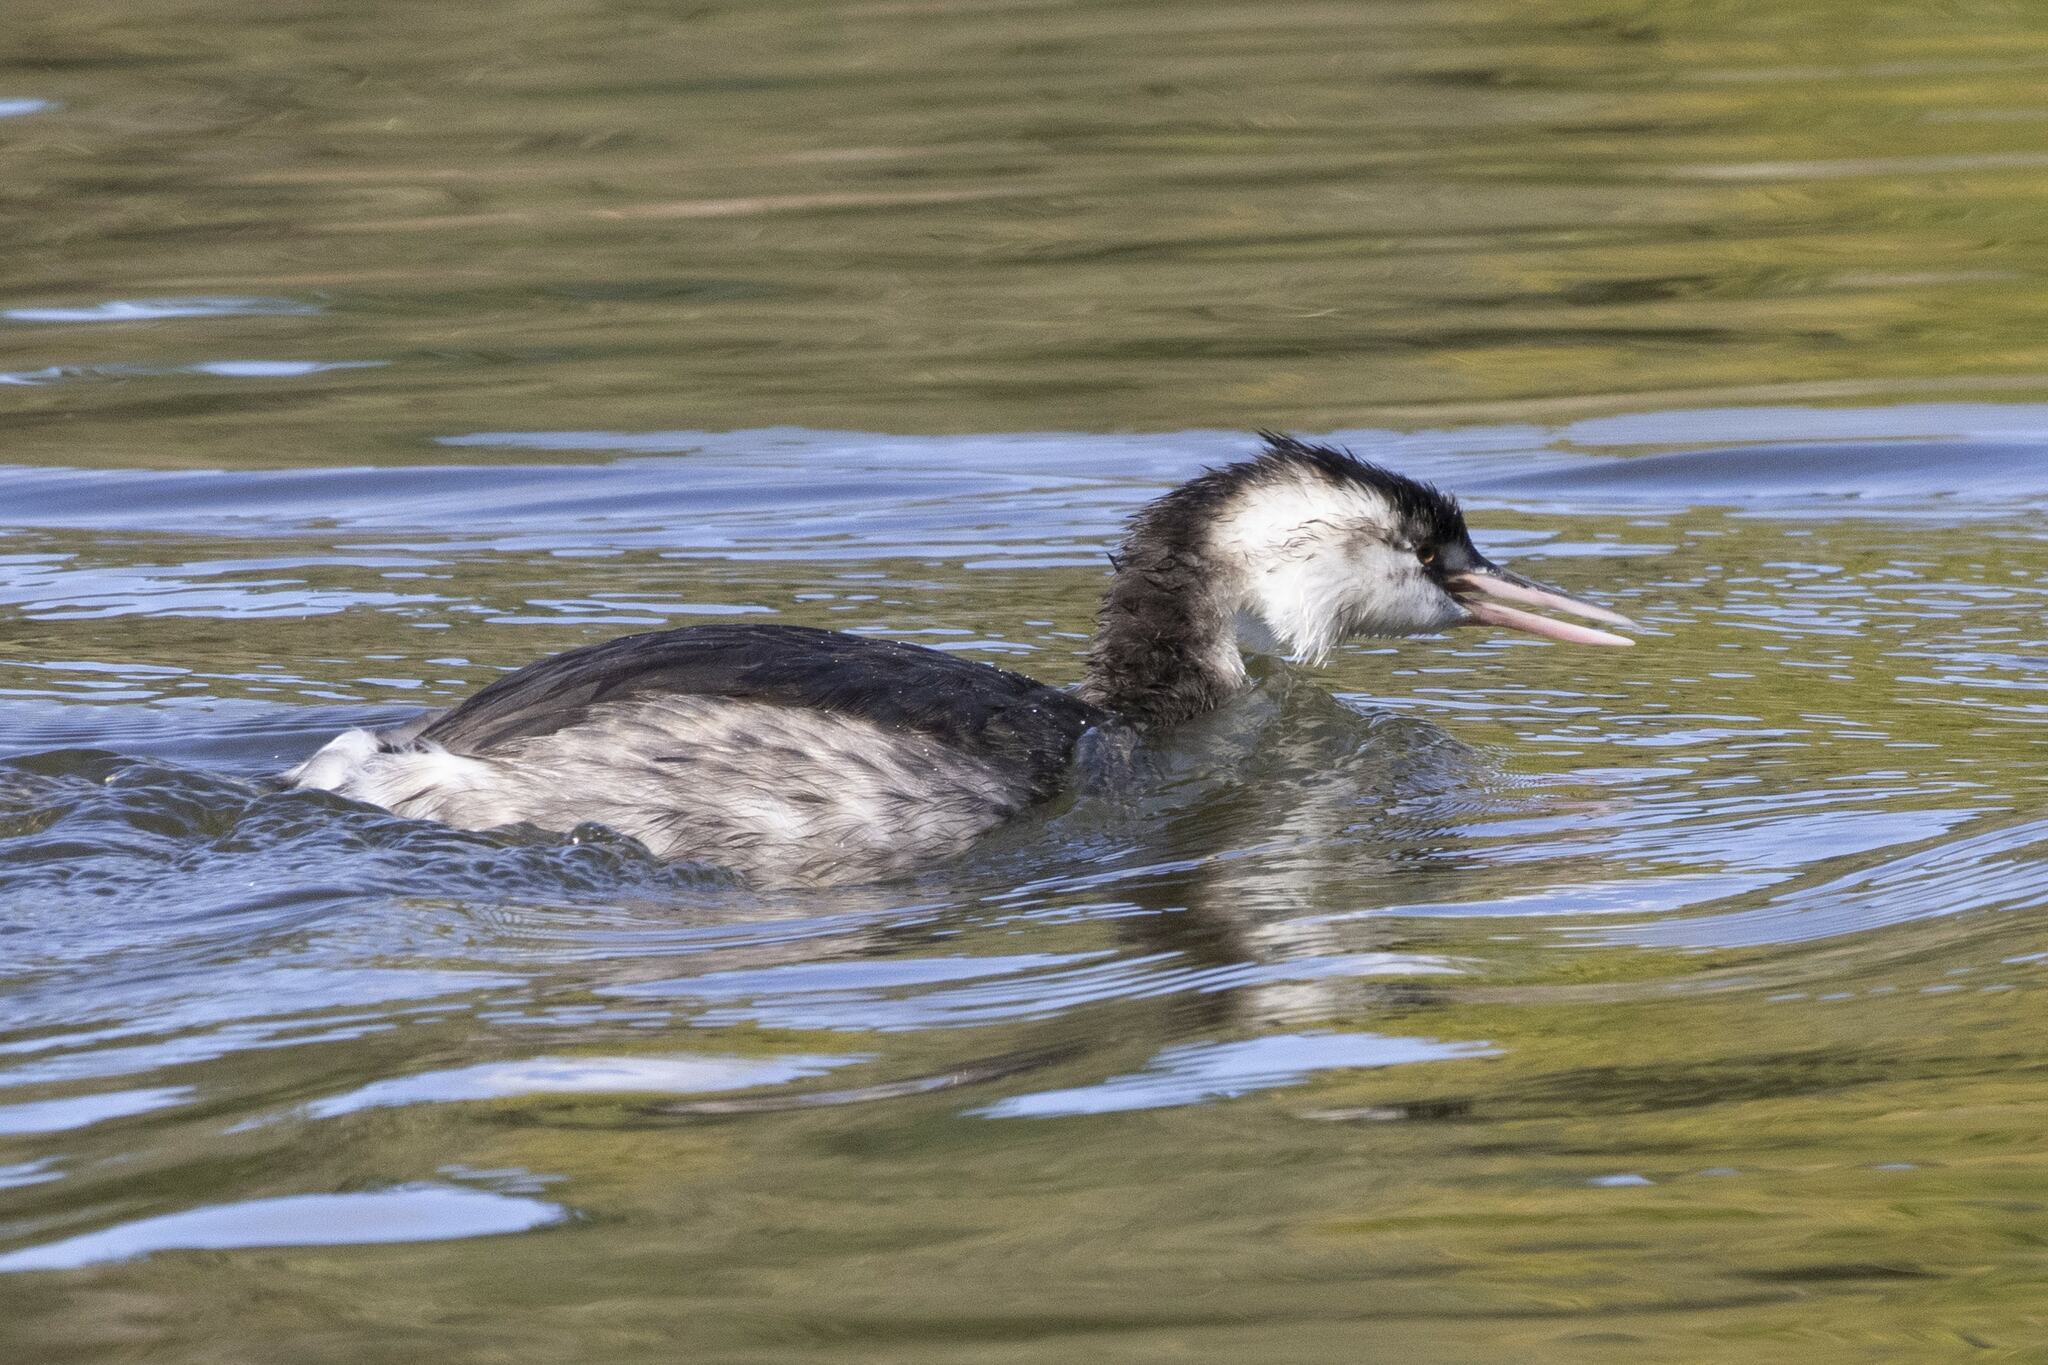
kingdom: Animalia
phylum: Chordata
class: Aves
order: Podicipediformes
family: Podicipedidae
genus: Podiceps
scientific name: Podiceps cristatus
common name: Great crested grebe
